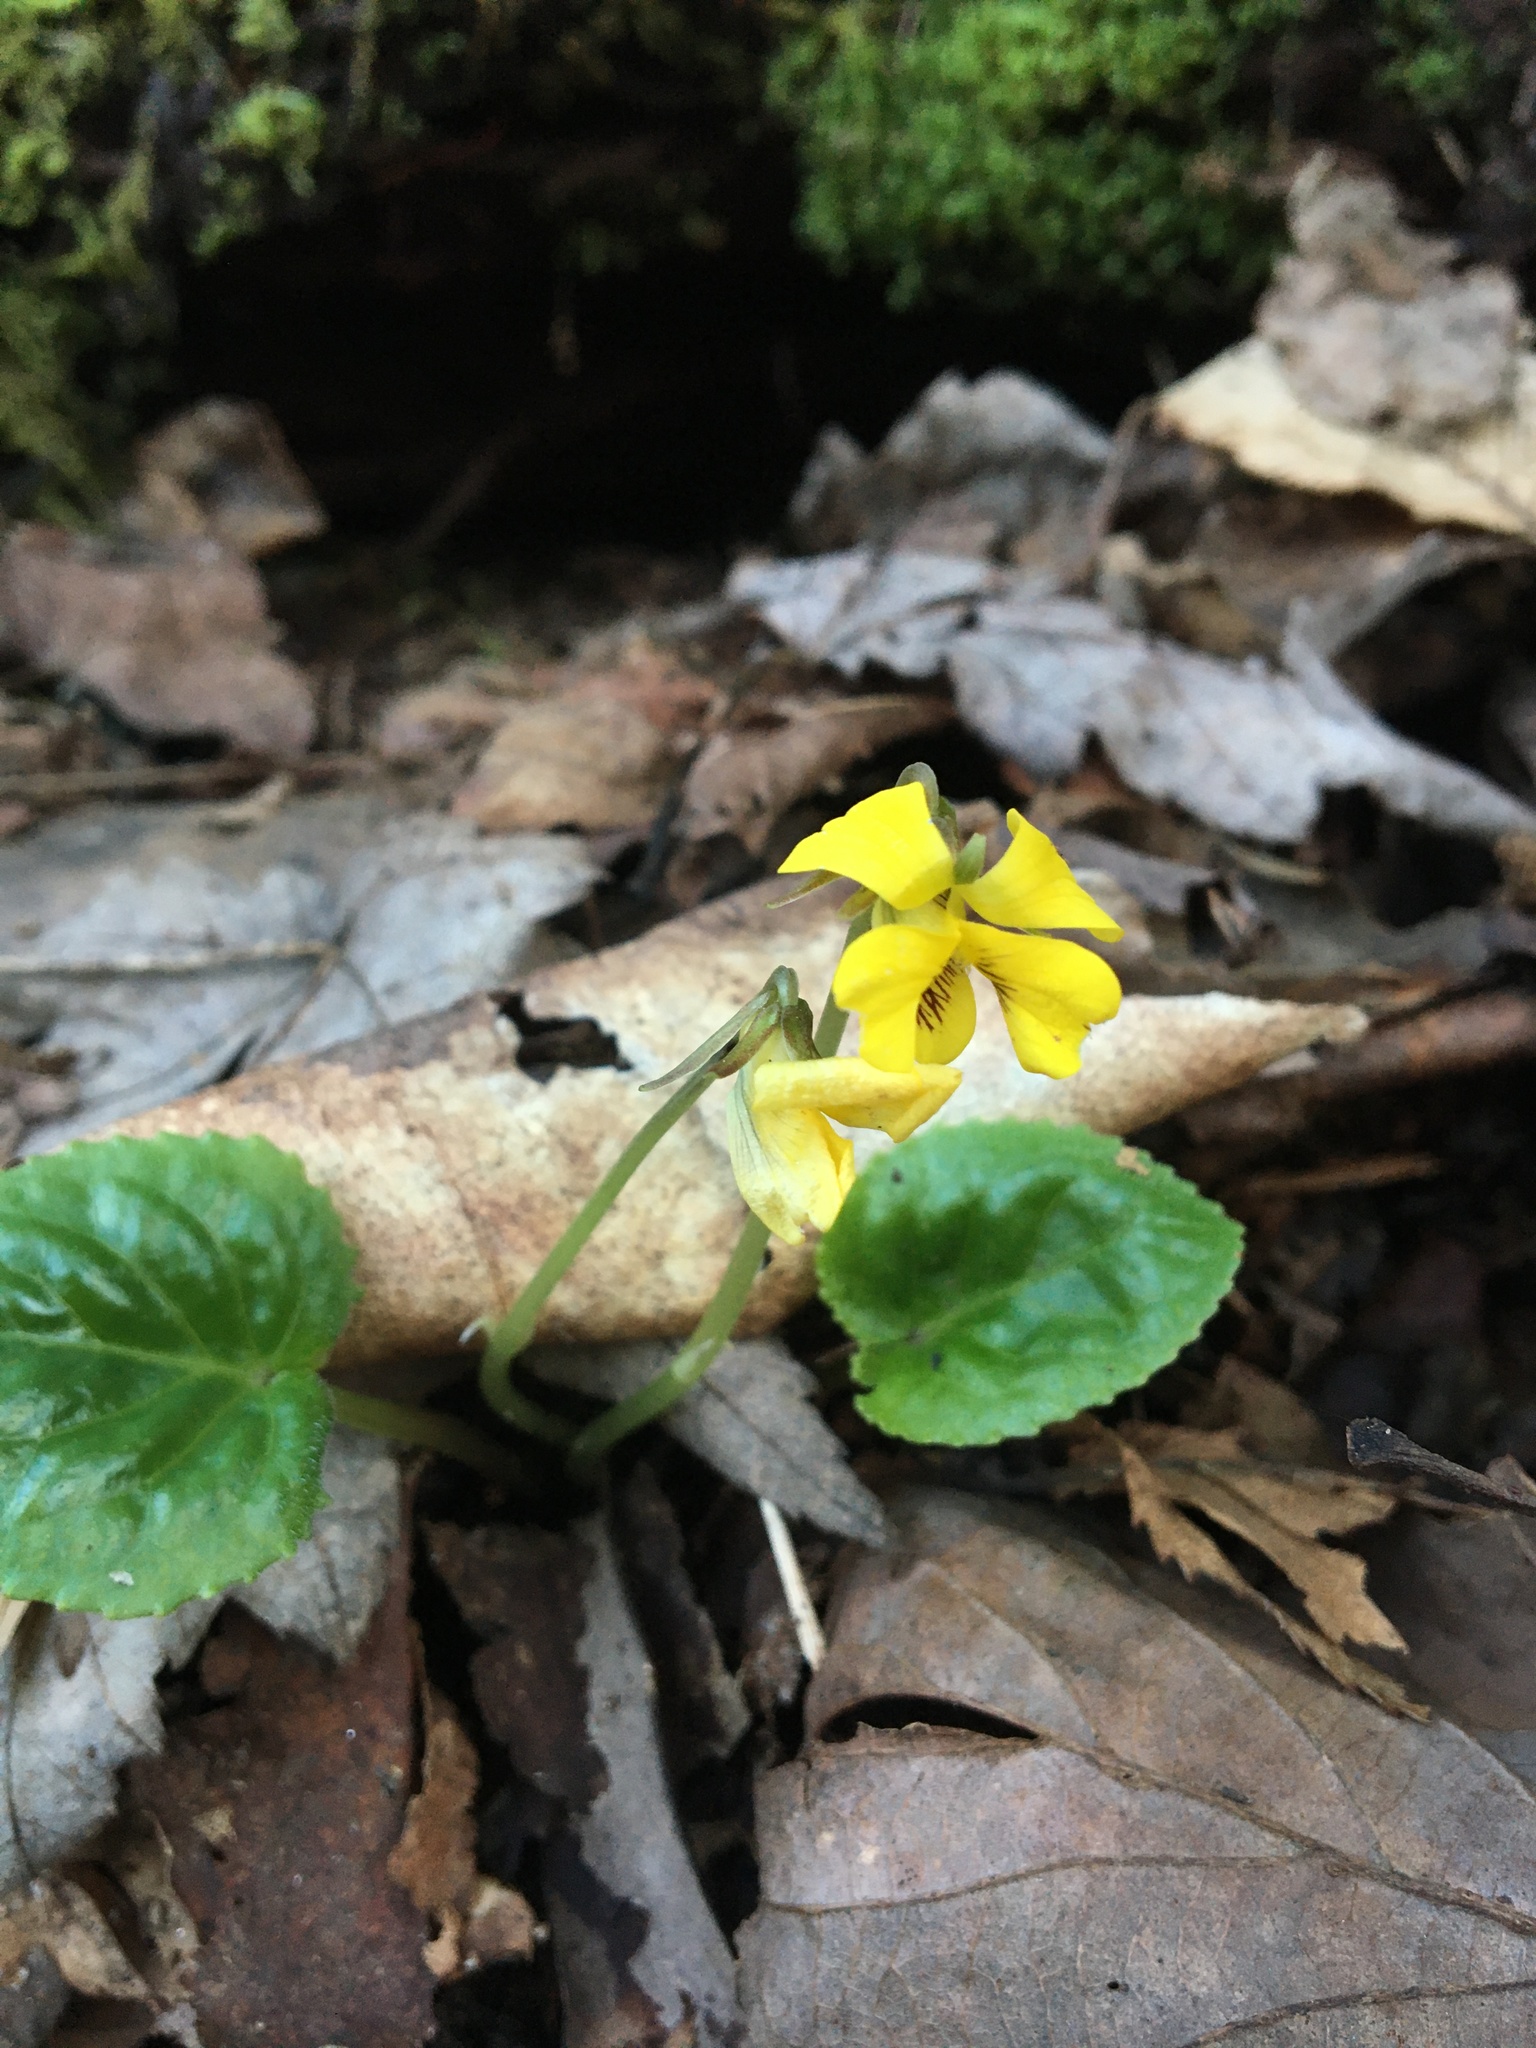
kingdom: Plantae
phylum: Tracheophyta
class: Magnoliopsida
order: Malpighiales
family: Violaceae
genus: Viola
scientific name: Viola rotundifolia
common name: Early yellow violet
